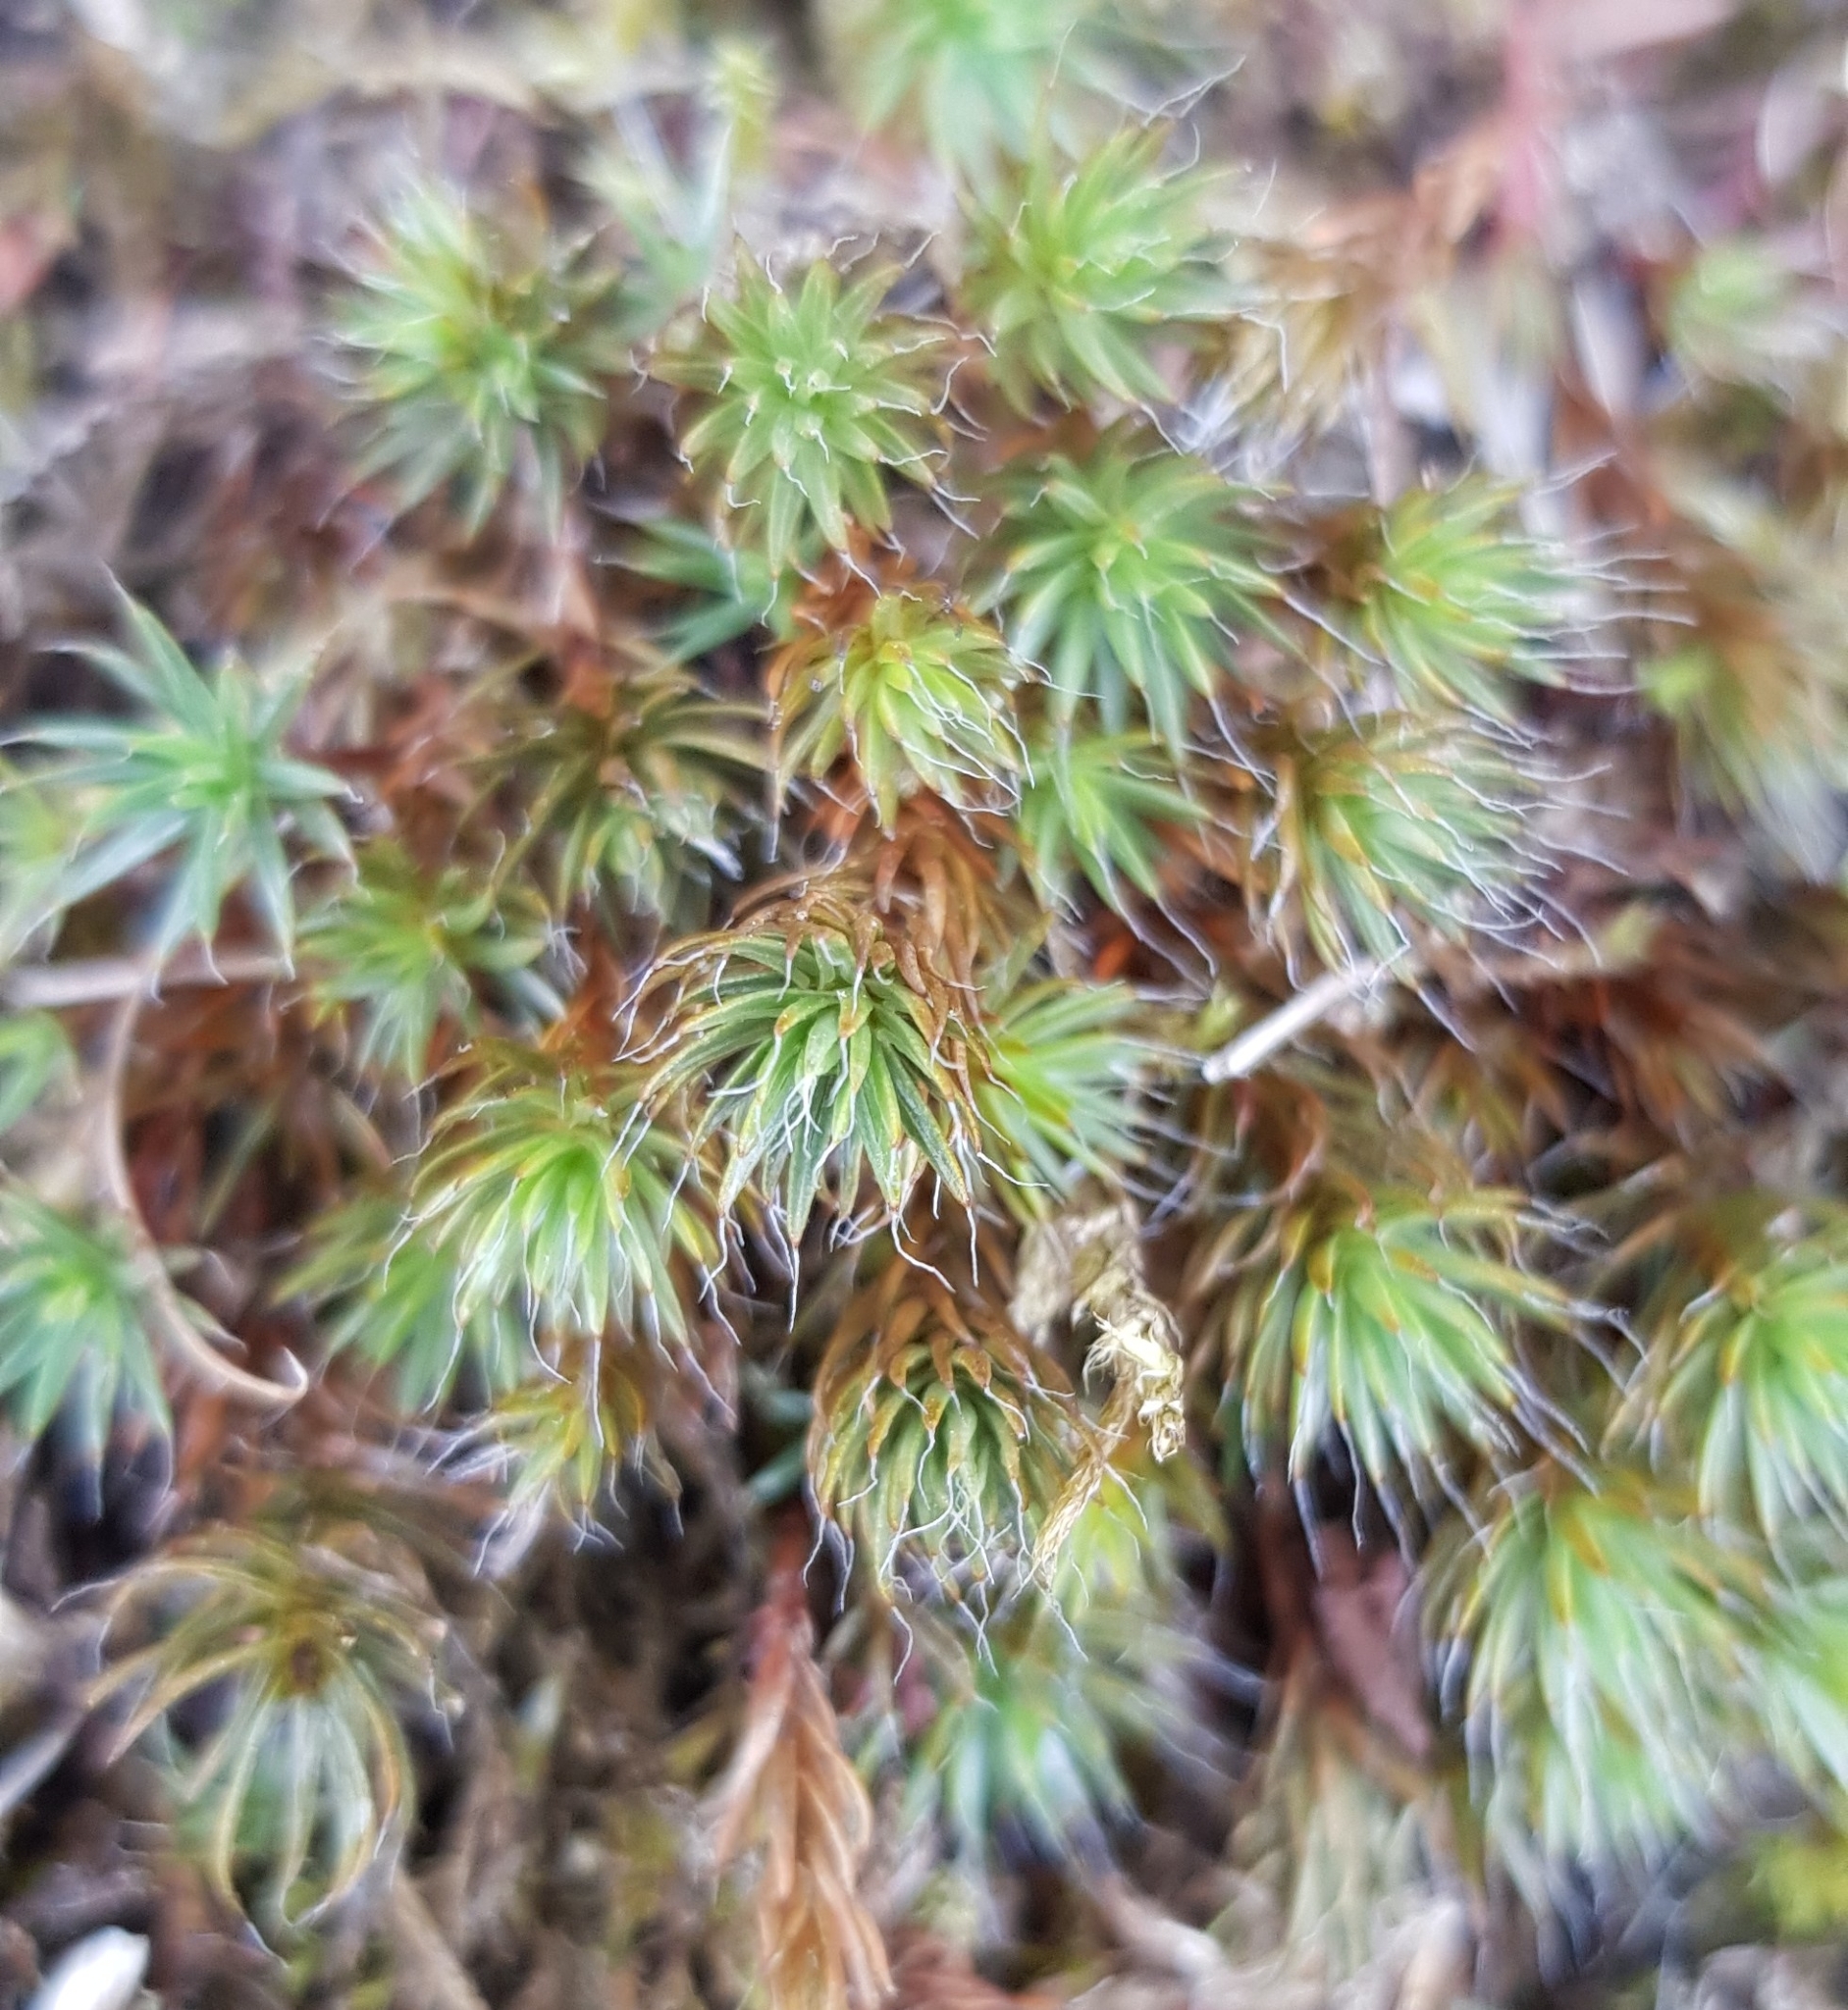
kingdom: Plantae
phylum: Bryophyta
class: Polytrichopsida
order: Polytrichales
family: Polytrichaceae
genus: Polytrichum
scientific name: Polytrichum piliferum
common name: Bristly haircap
